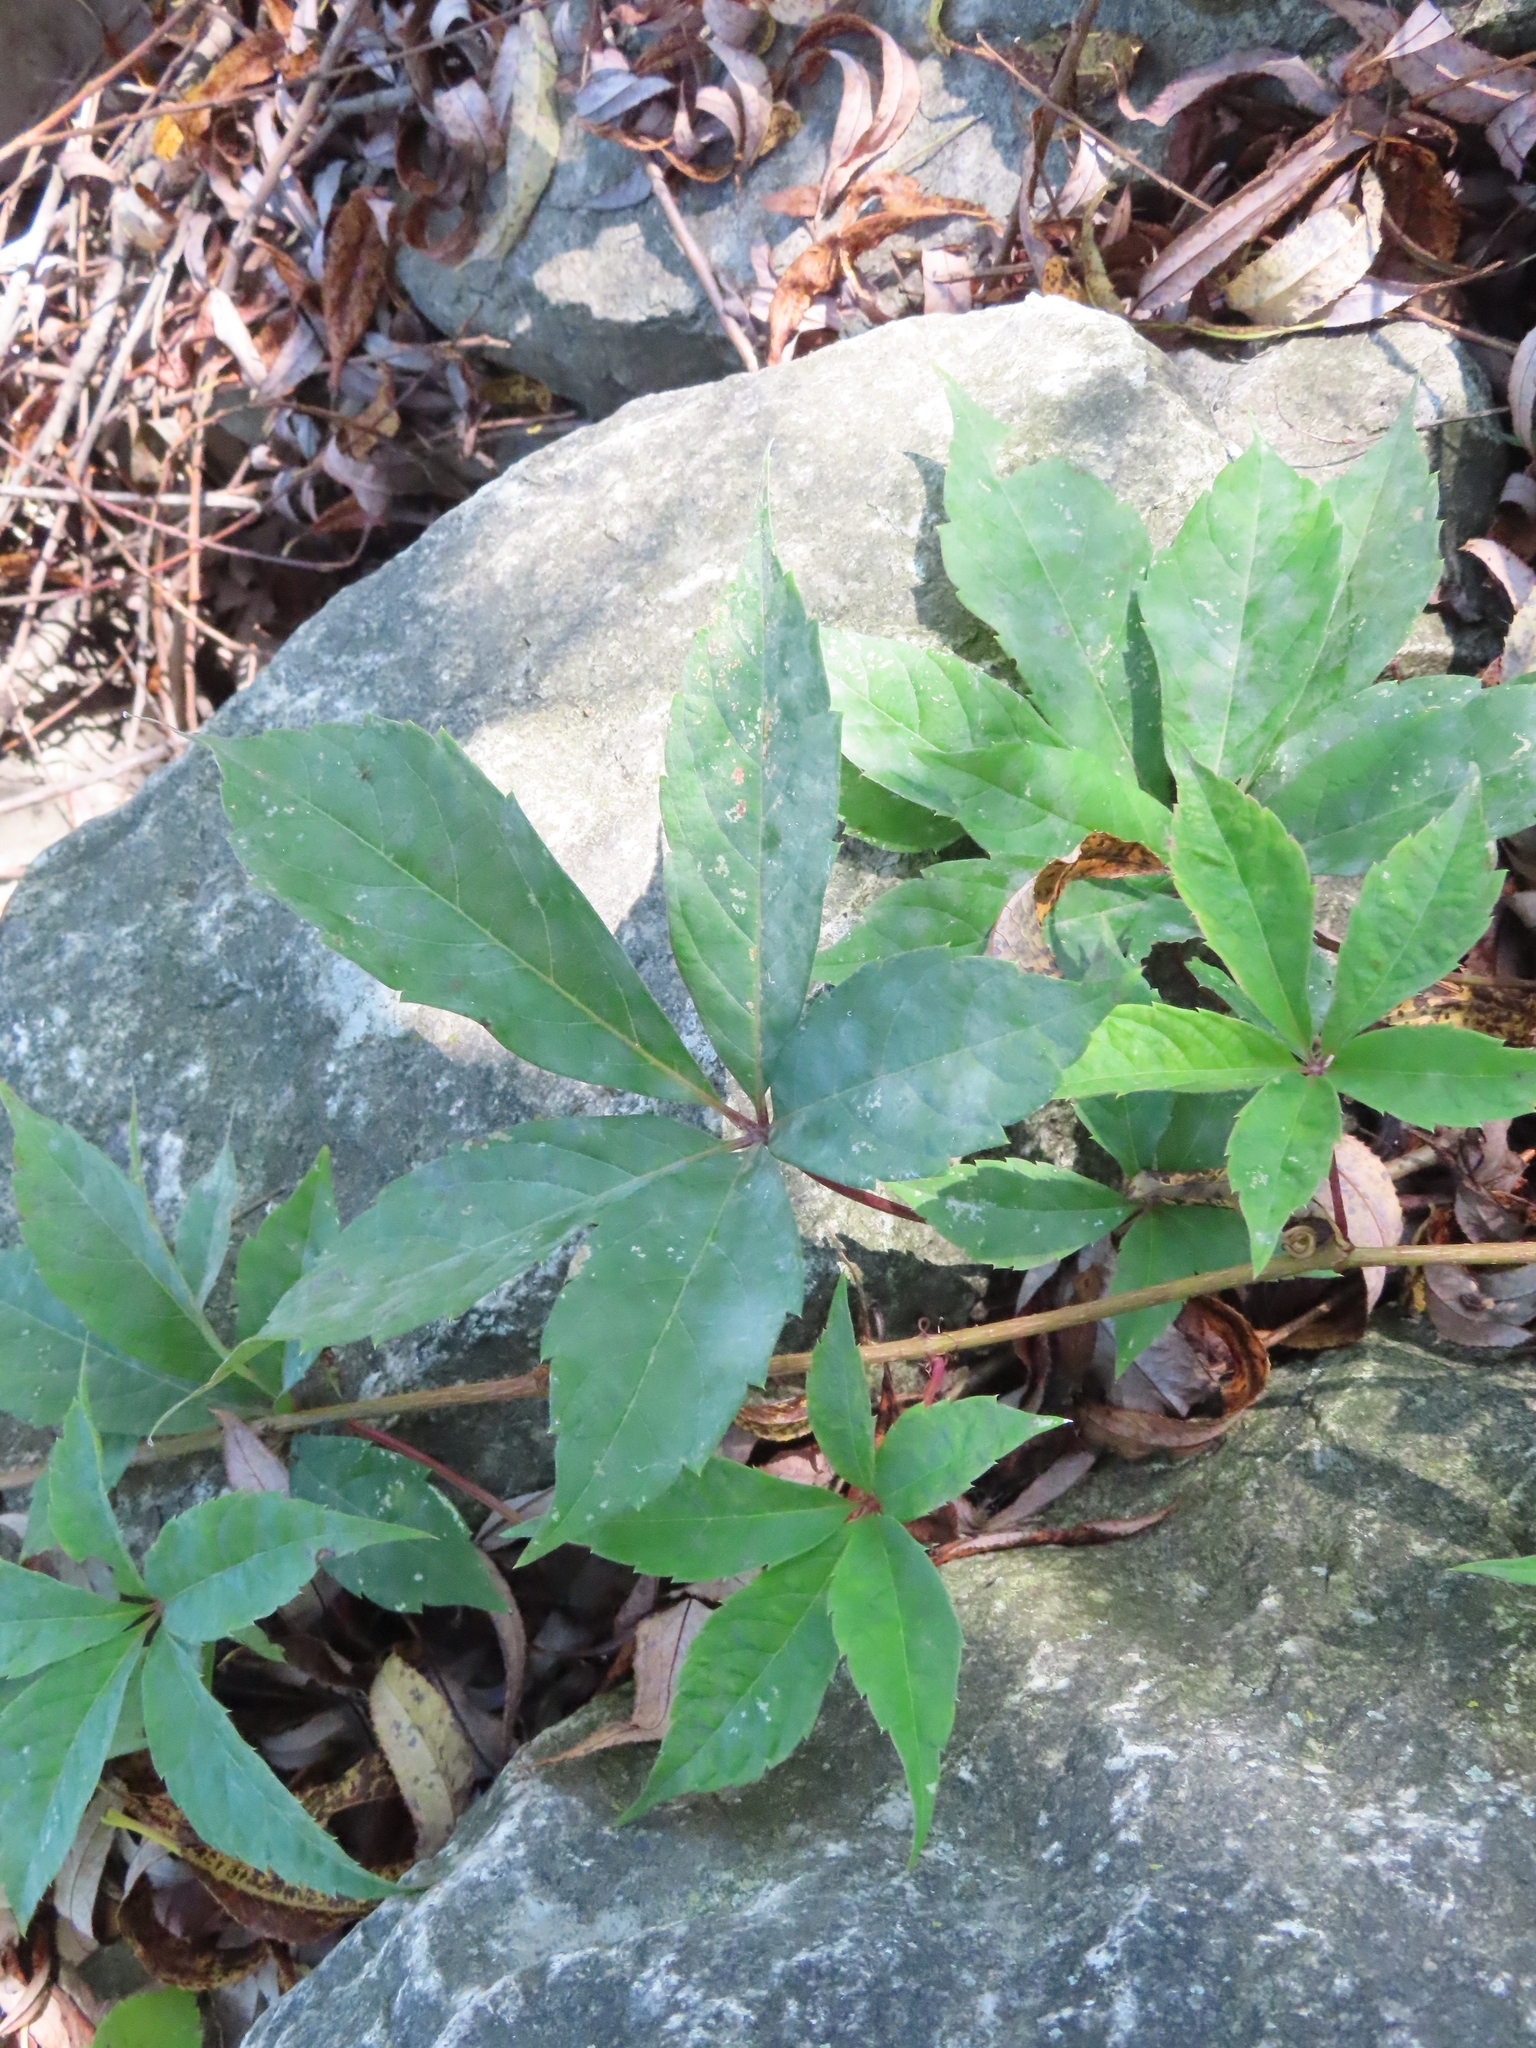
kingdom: Plantae
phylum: Tracheophyta
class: Magnoliopsida
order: Vitales
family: Vitaceae
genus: Parthenocissus
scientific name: Parthenocissus quinquefolia
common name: Virginia-creeper
